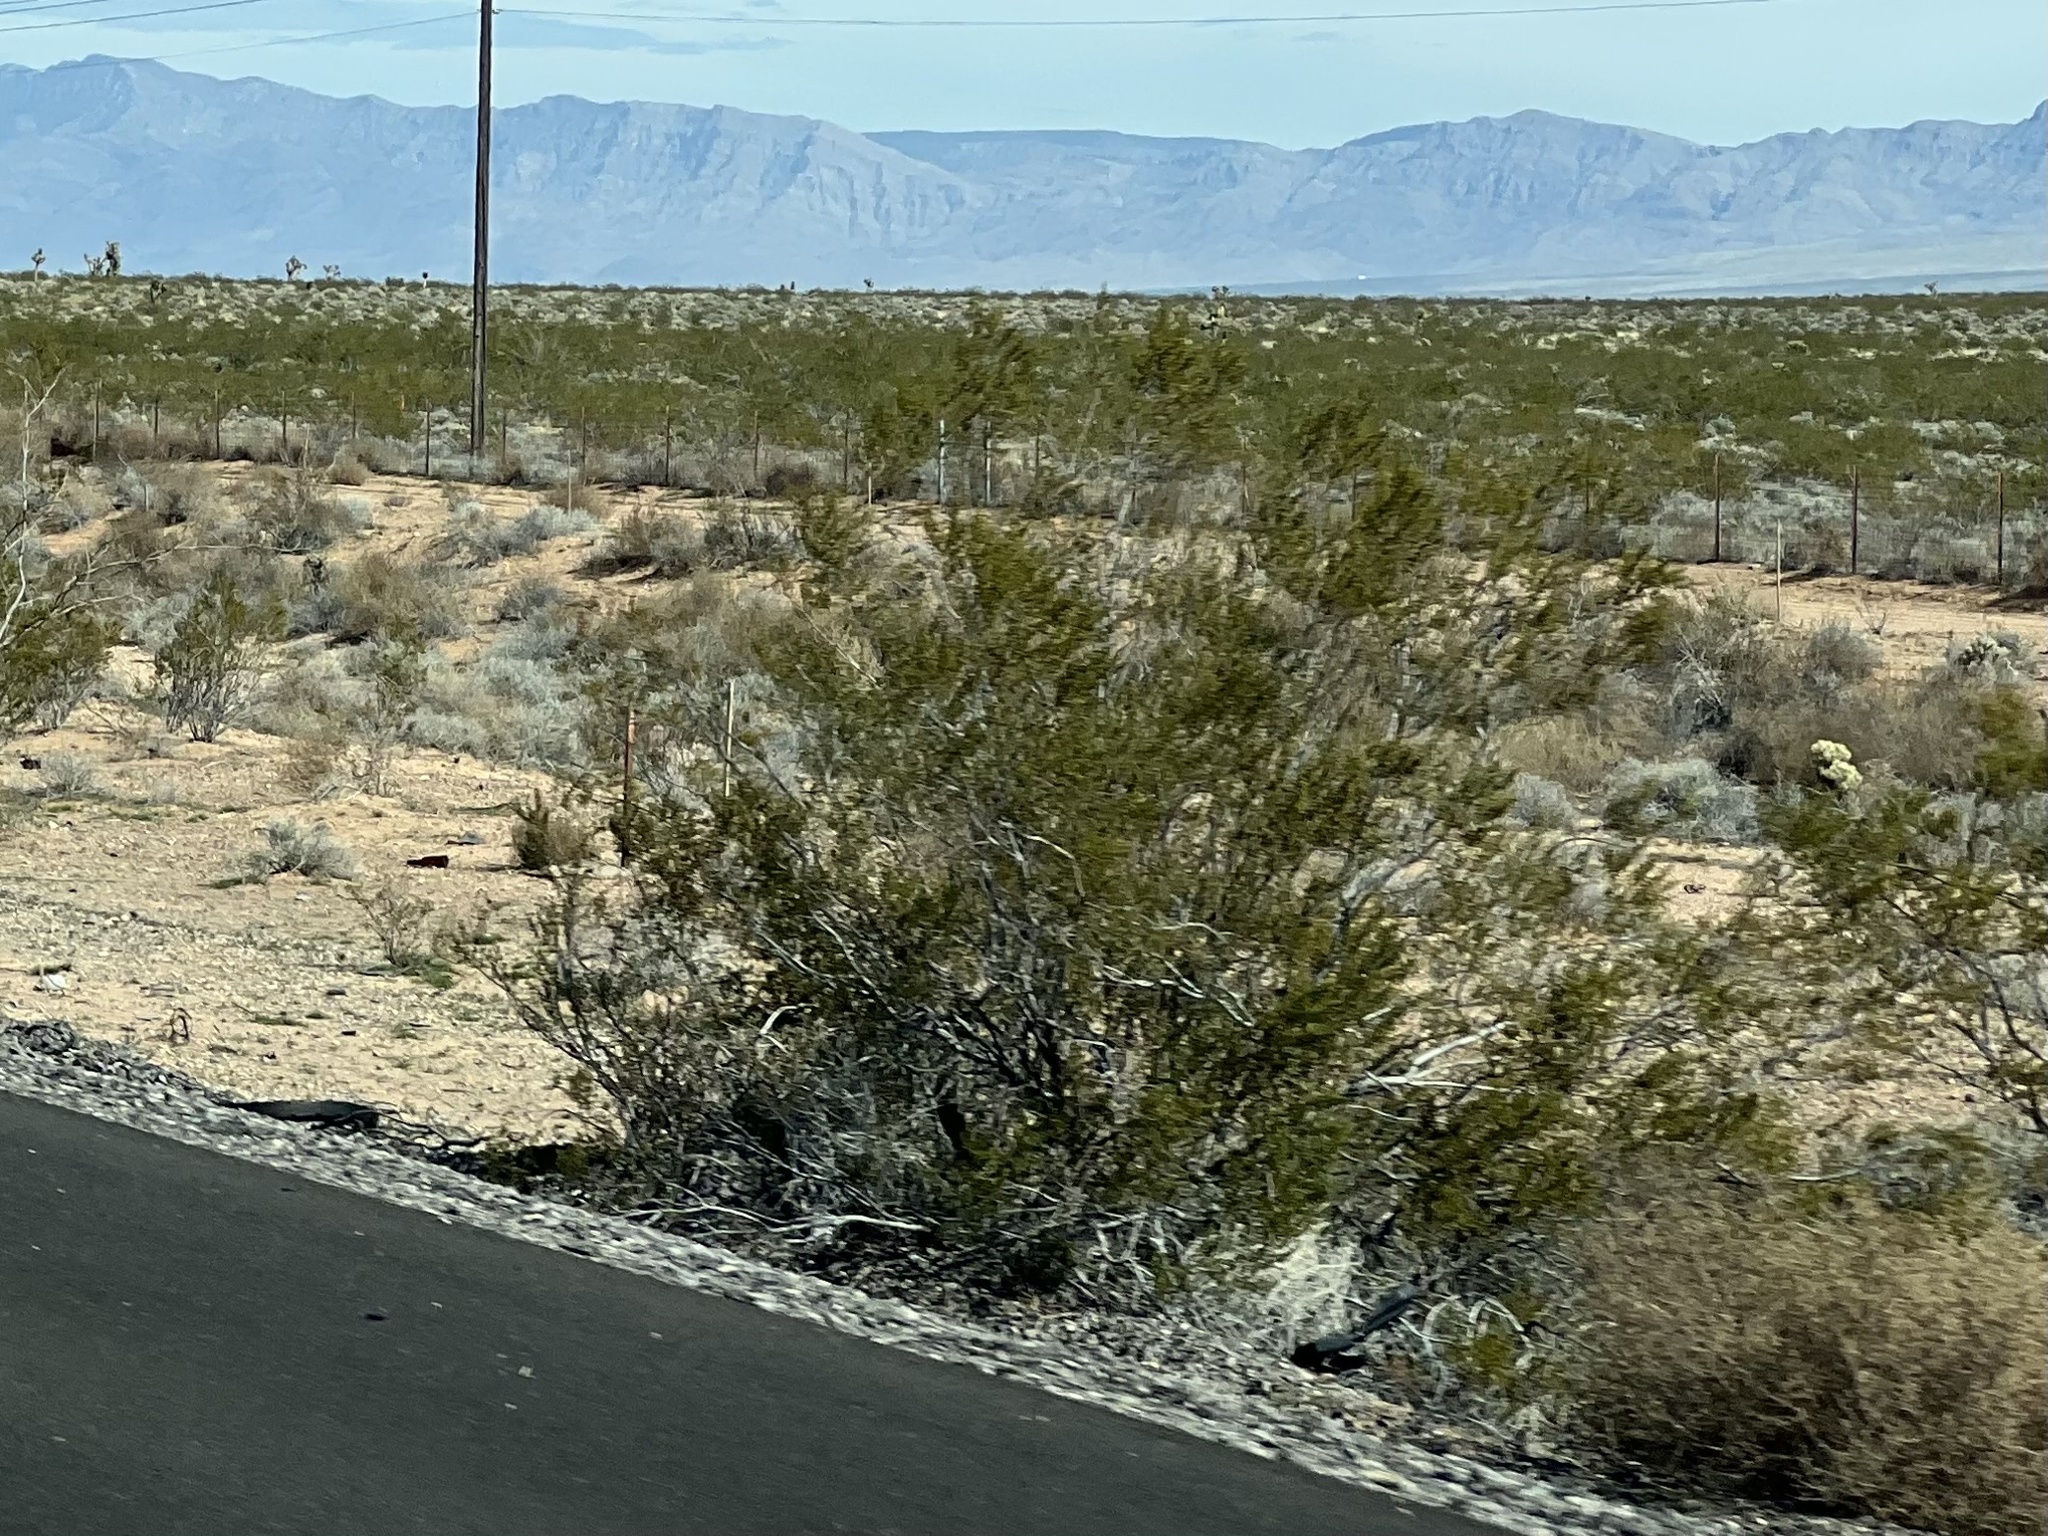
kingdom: Plantae
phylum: Tracheophyta
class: Magnoliopsida
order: Zygophyllales
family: Zygophyllaceae
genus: Larrea
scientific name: Larrea tridentata
